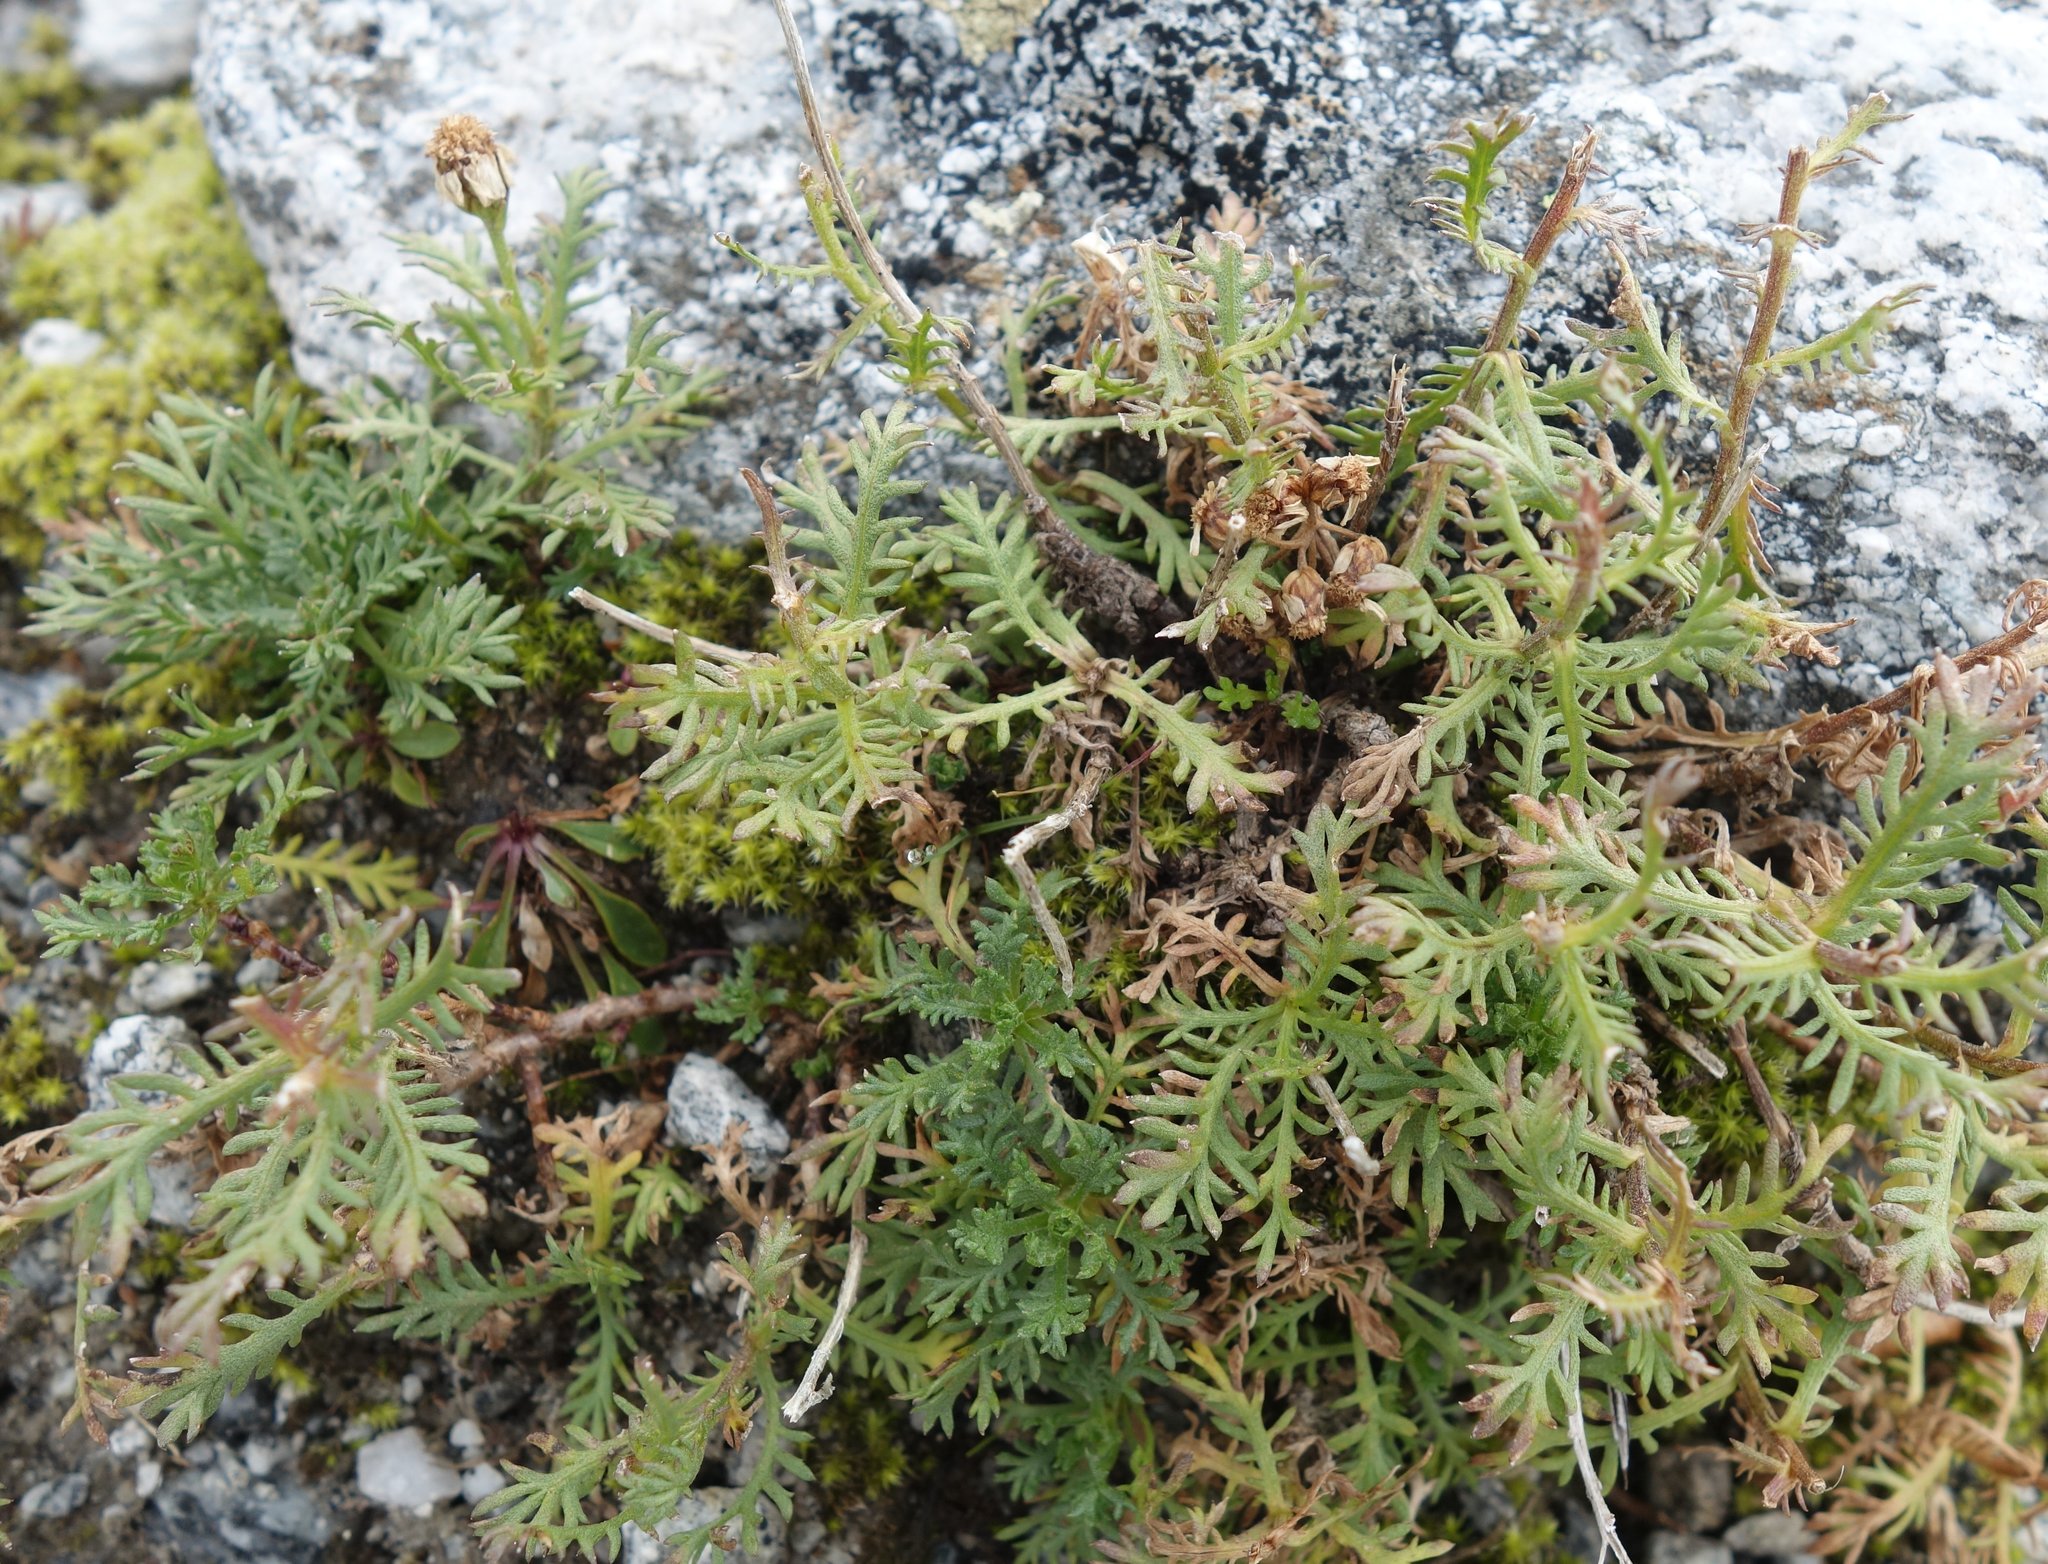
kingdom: Plantae
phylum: Tracheophyta
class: Magnoliopsida
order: Asterales
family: Asteraceae
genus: Achillea
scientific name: Achillea erba-rotta
